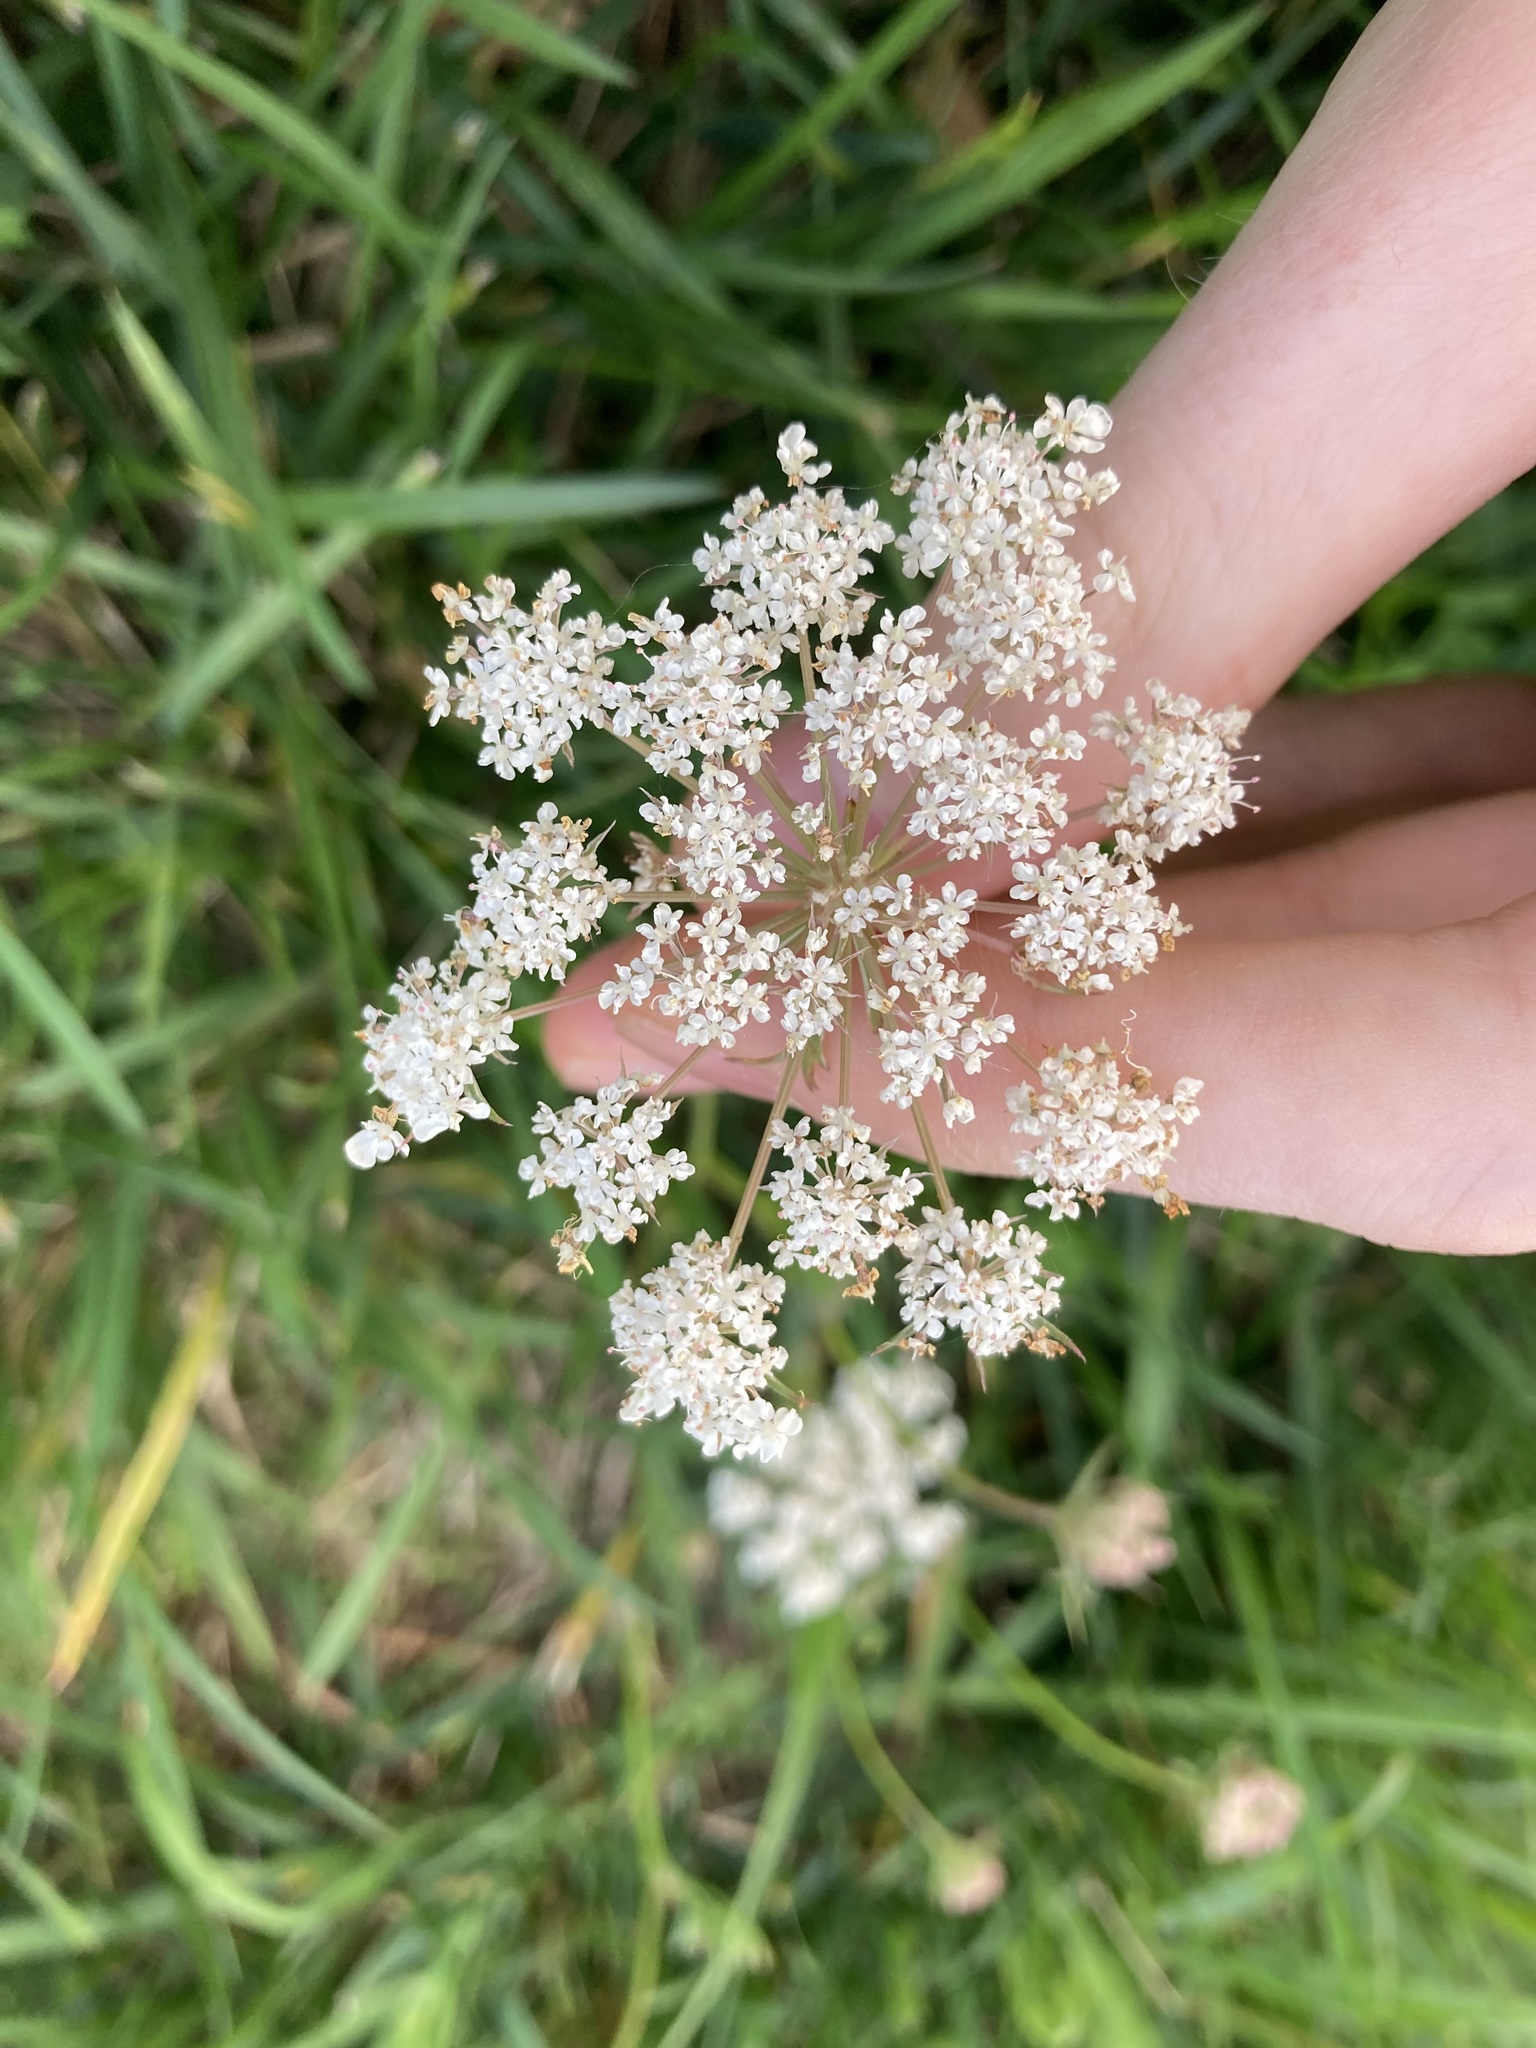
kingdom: Plantae
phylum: Tracheophyta
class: Magnoliopsida
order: Apiales
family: Apiaceae
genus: Daucus
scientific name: Daucus carota
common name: Wild carrot
